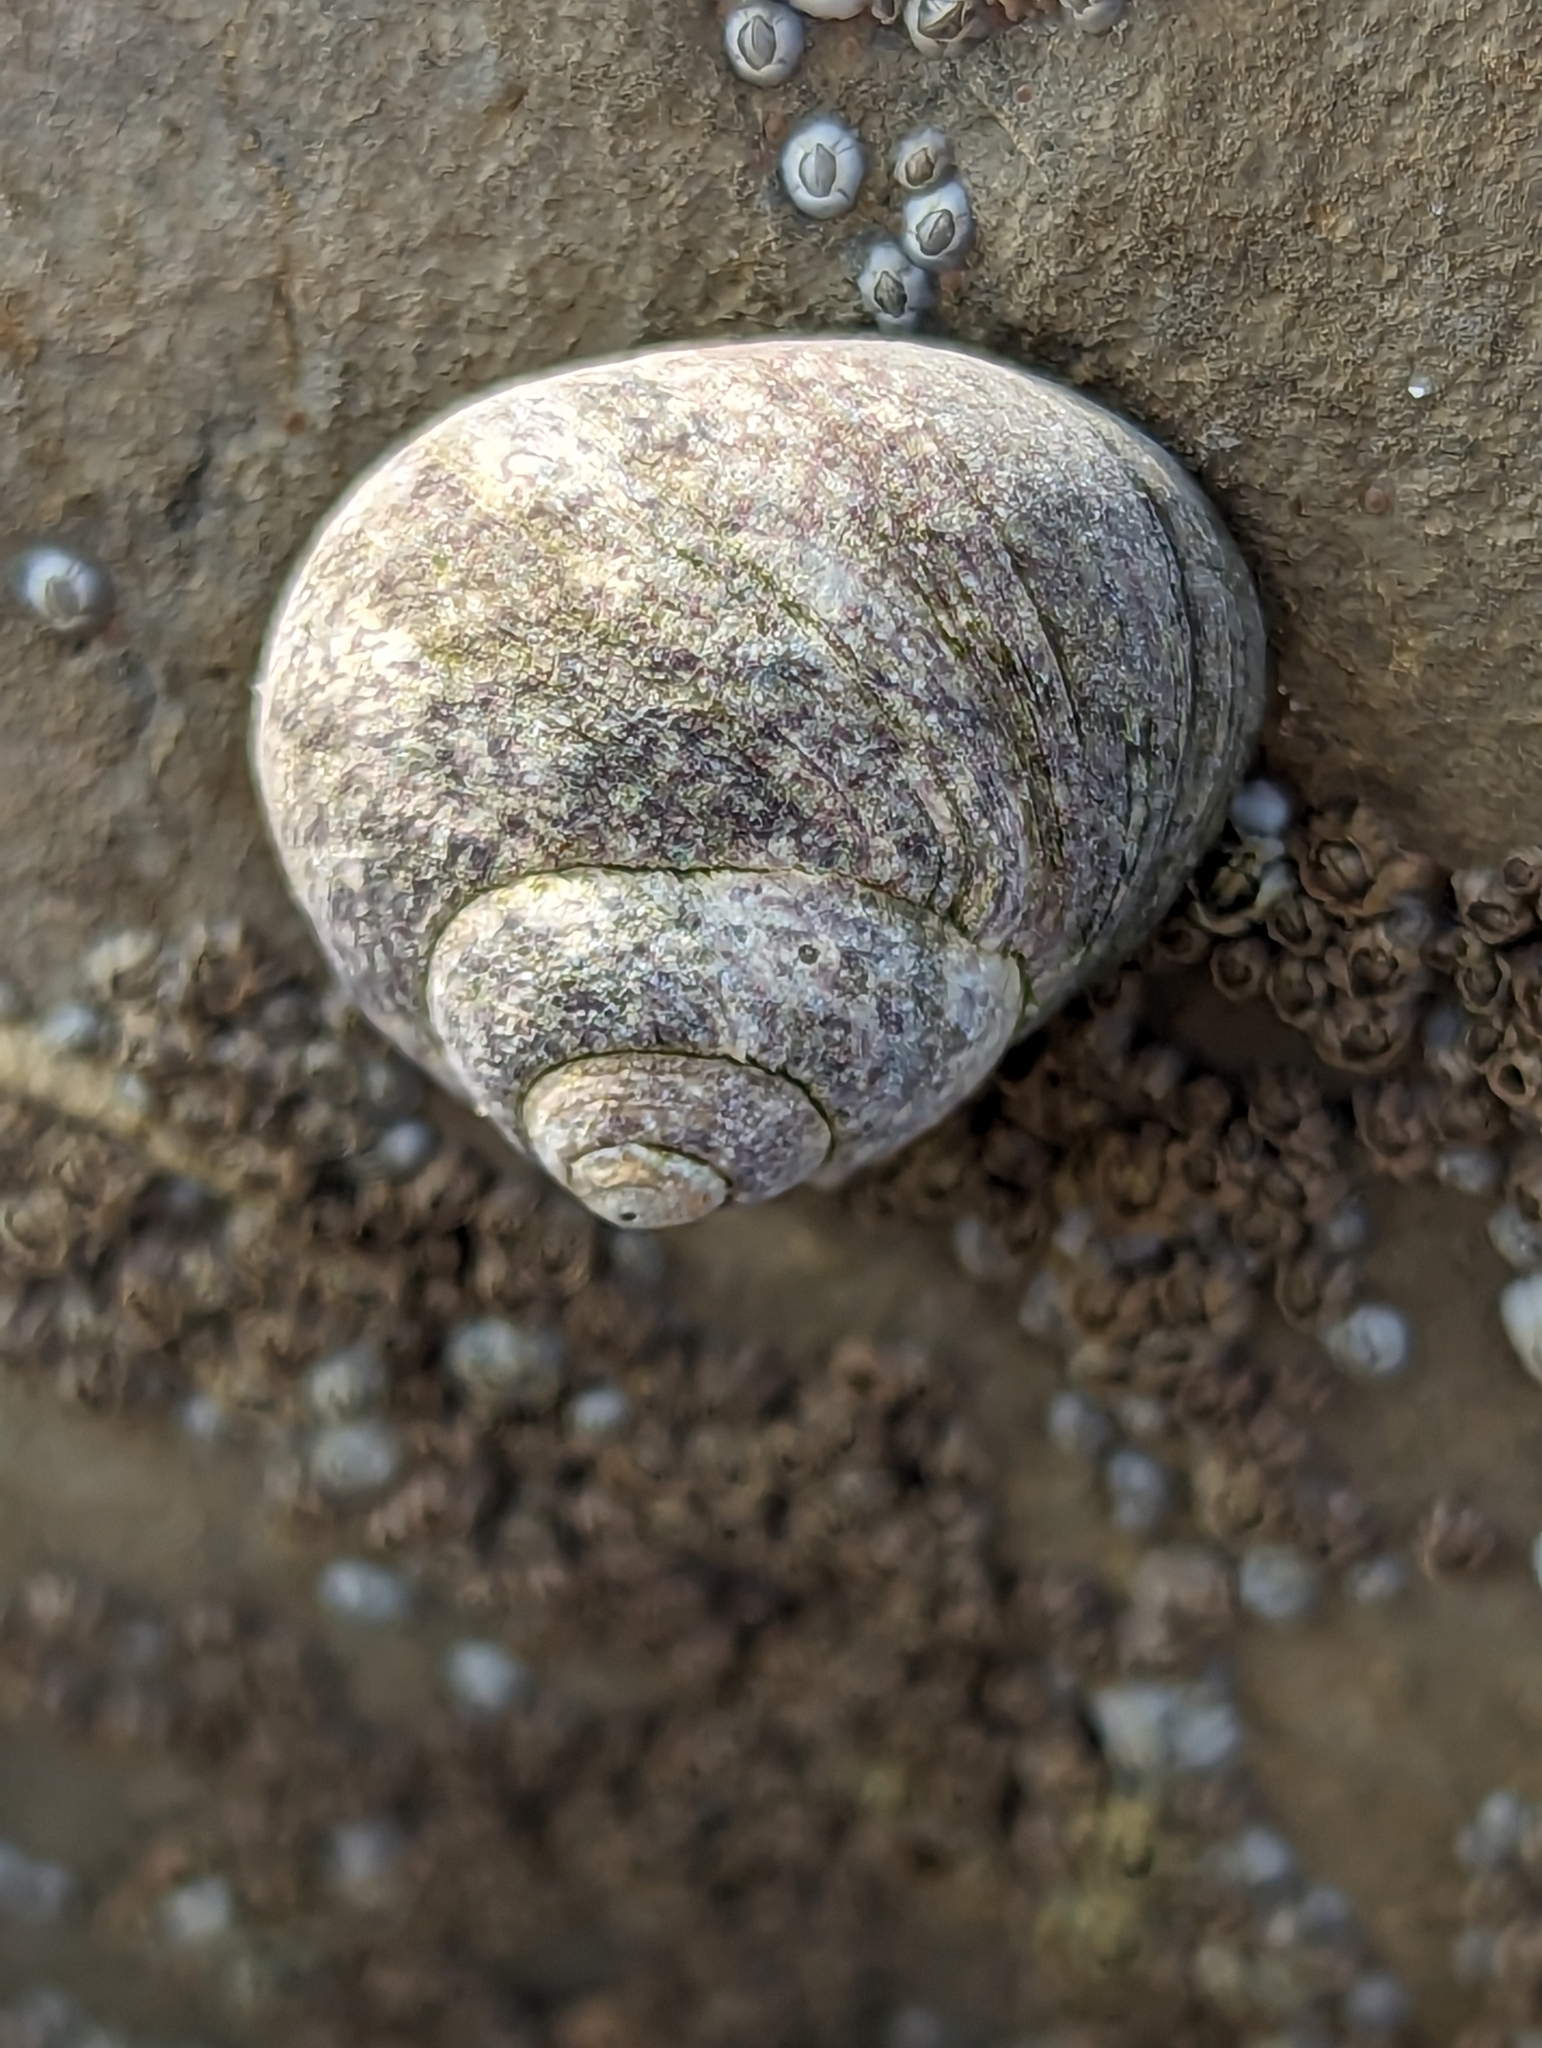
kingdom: Animalia
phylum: Mollusca
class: Gastropoda
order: Trochida
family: Trochidae
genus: Phorcus
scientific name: Phorcus lineatus
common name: Toothed top shell
